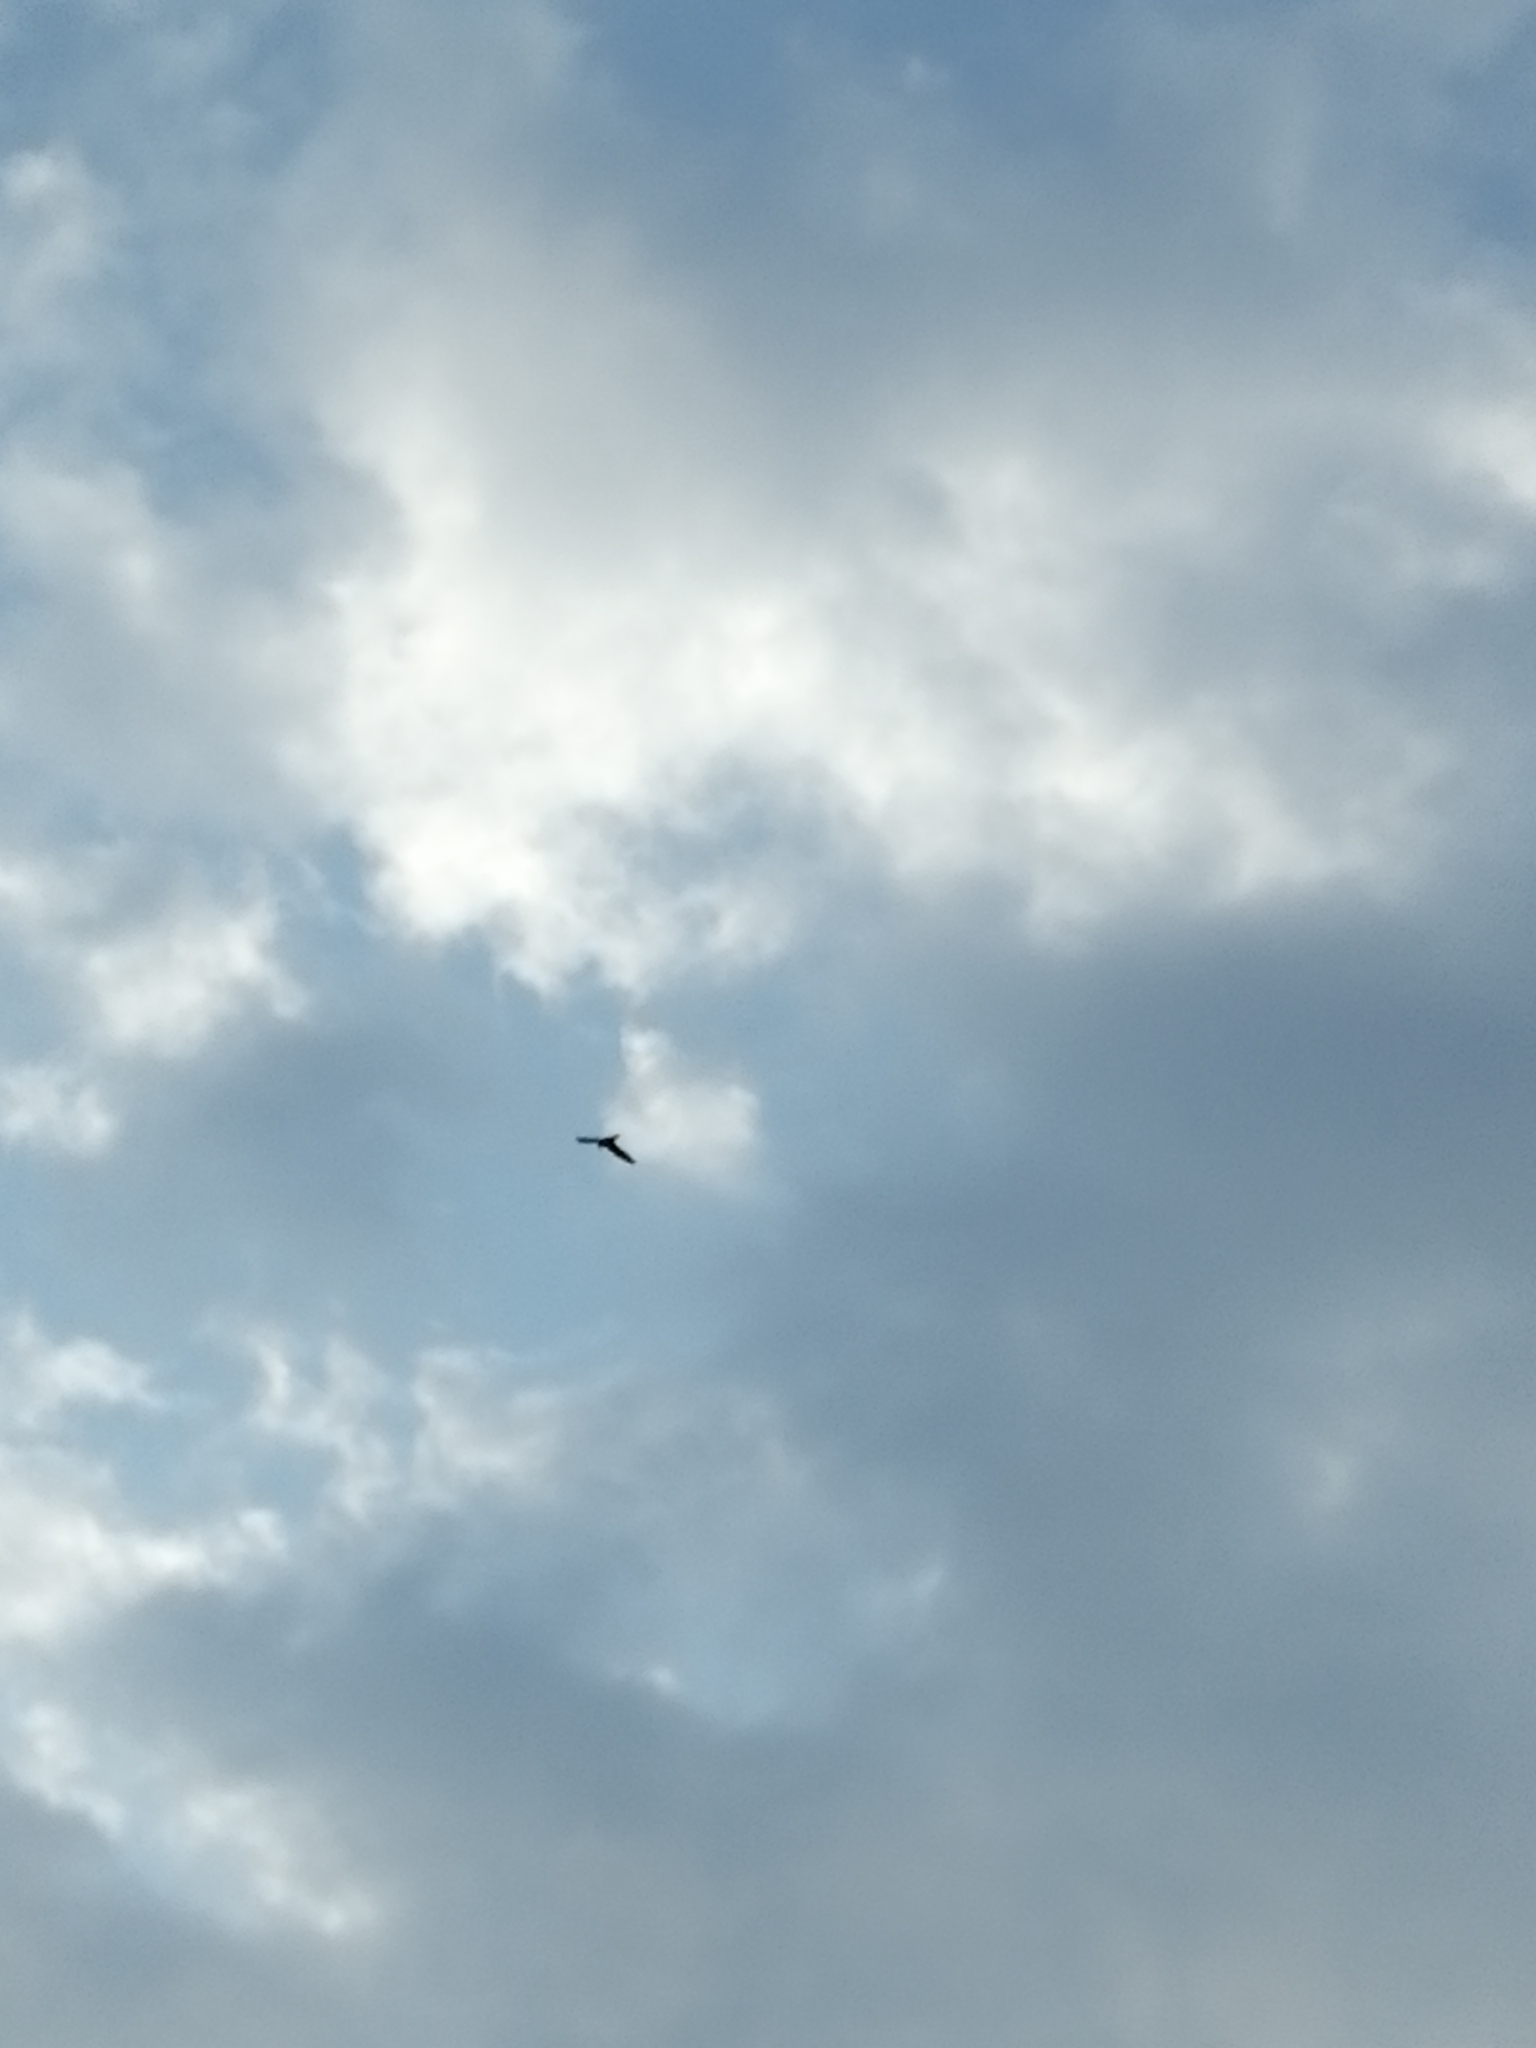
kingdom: Animalia
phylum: Chordata
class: Aves
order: Apodiformes
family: Apodidae
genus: Apus
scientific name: Apus apus
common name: Common swift
